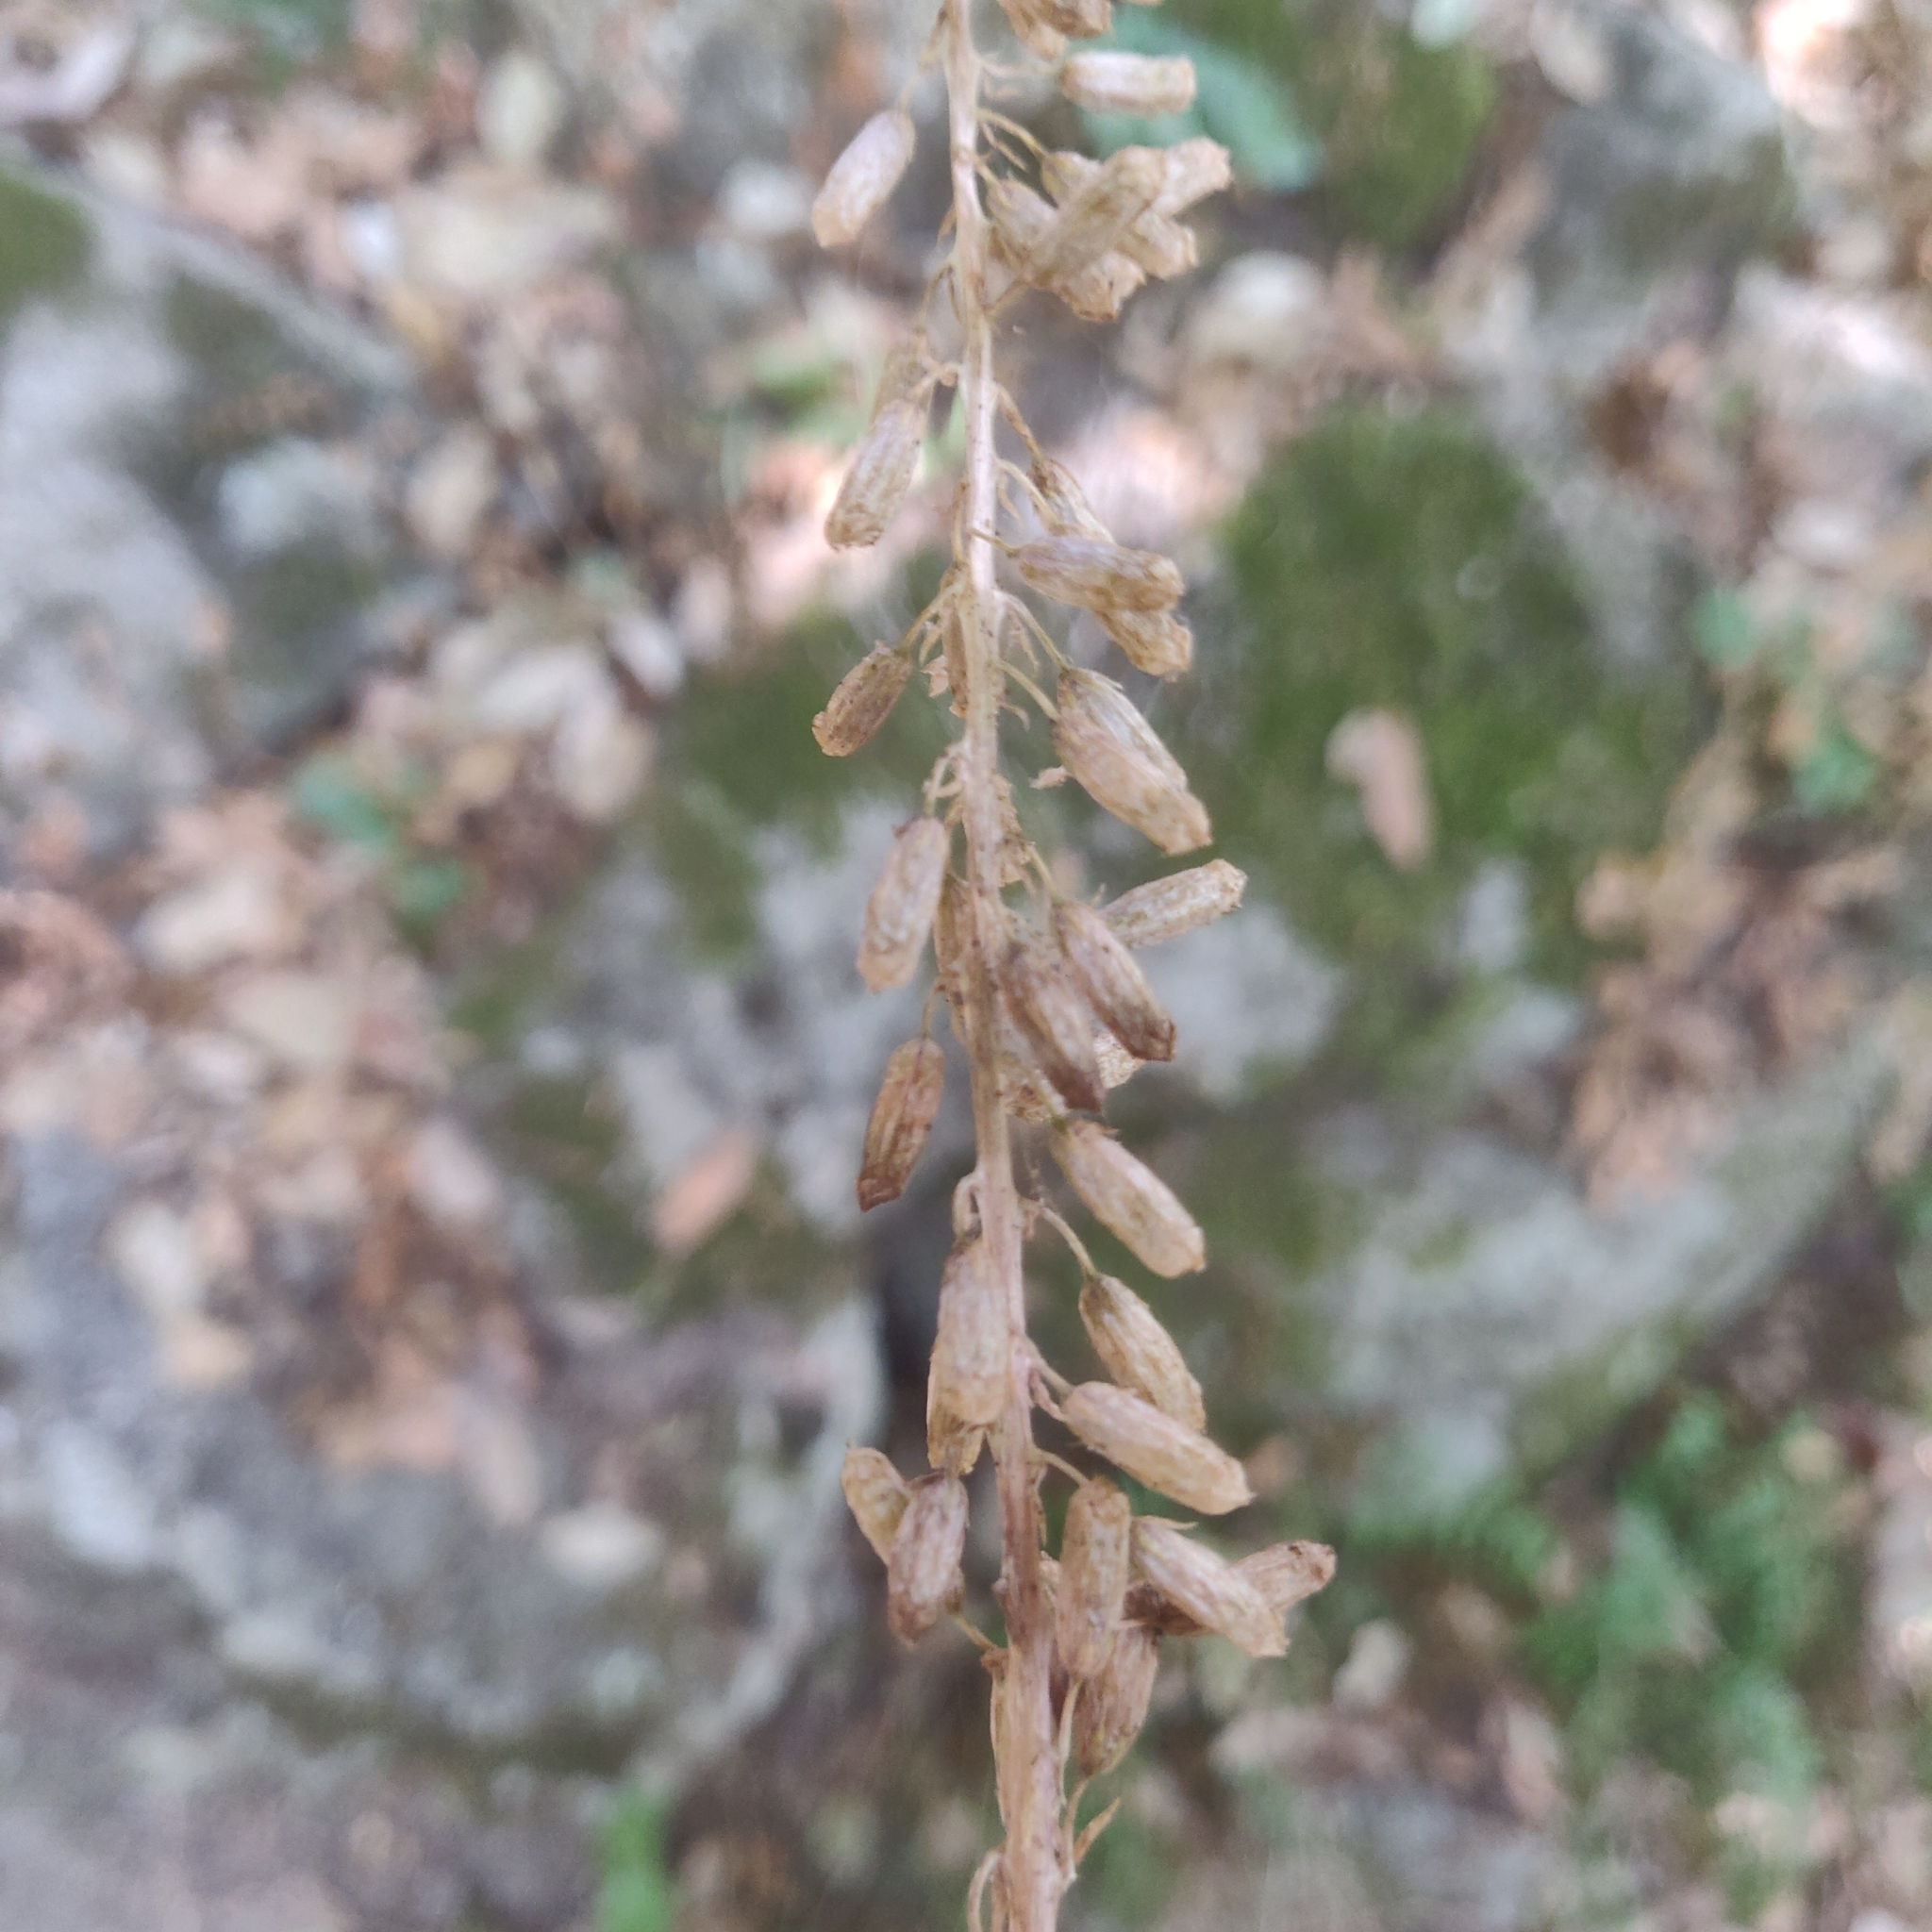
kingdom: Plantae
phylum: Tracheophyta
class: Magnoliopsida
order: Saxifragales
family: Crassulaceae
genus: Umbilicus
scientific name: Umbilicus rupestris
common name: Navelwort
